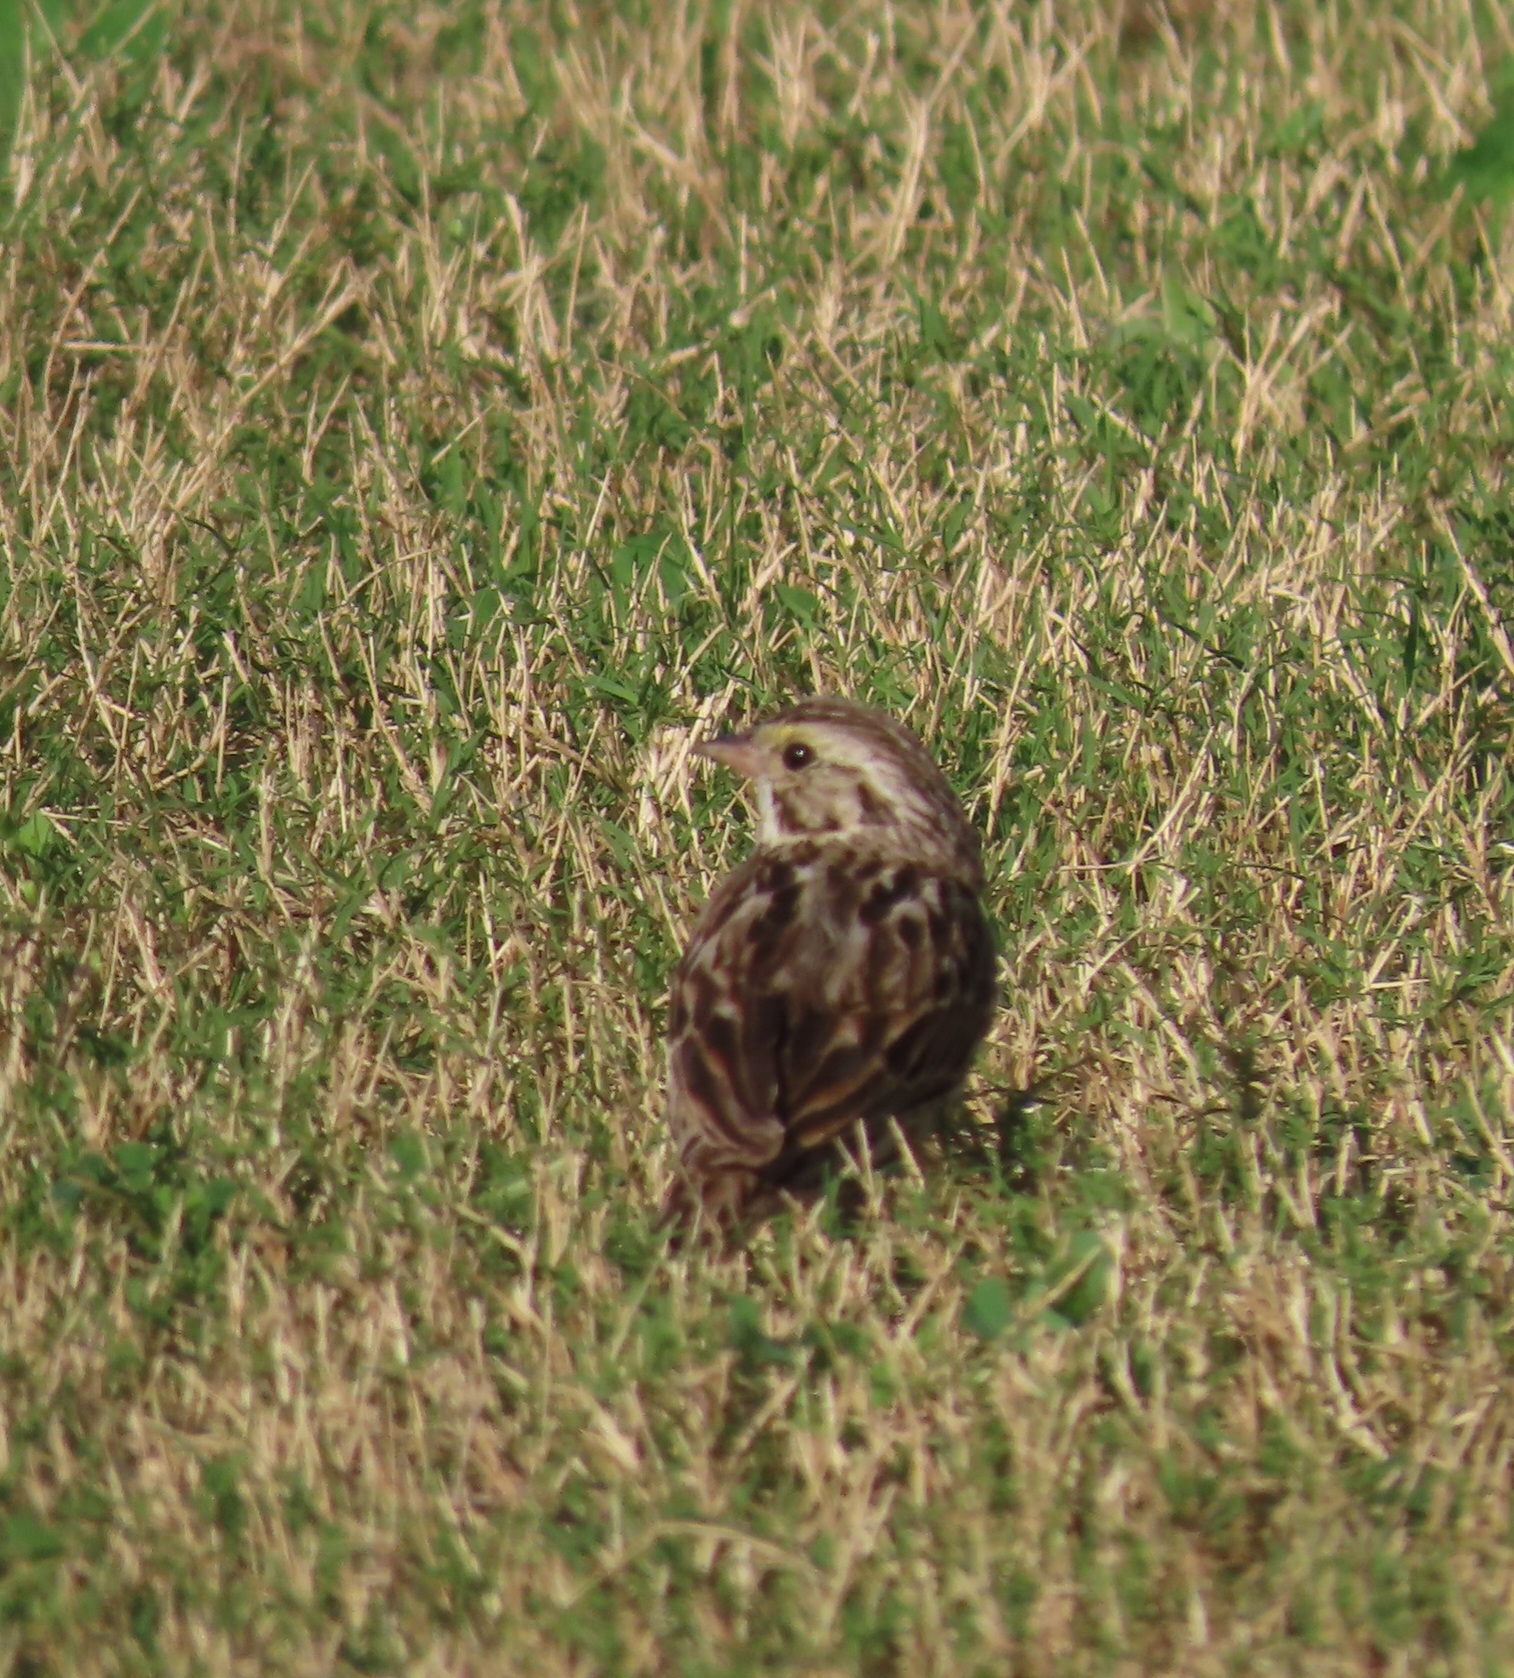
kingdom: Animalia
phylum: Chordata
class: Aves
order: Passeriformes
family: Passerellidae
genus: Passerculus
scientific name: Passerculus sandwichensis
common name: Savannah sparrow
